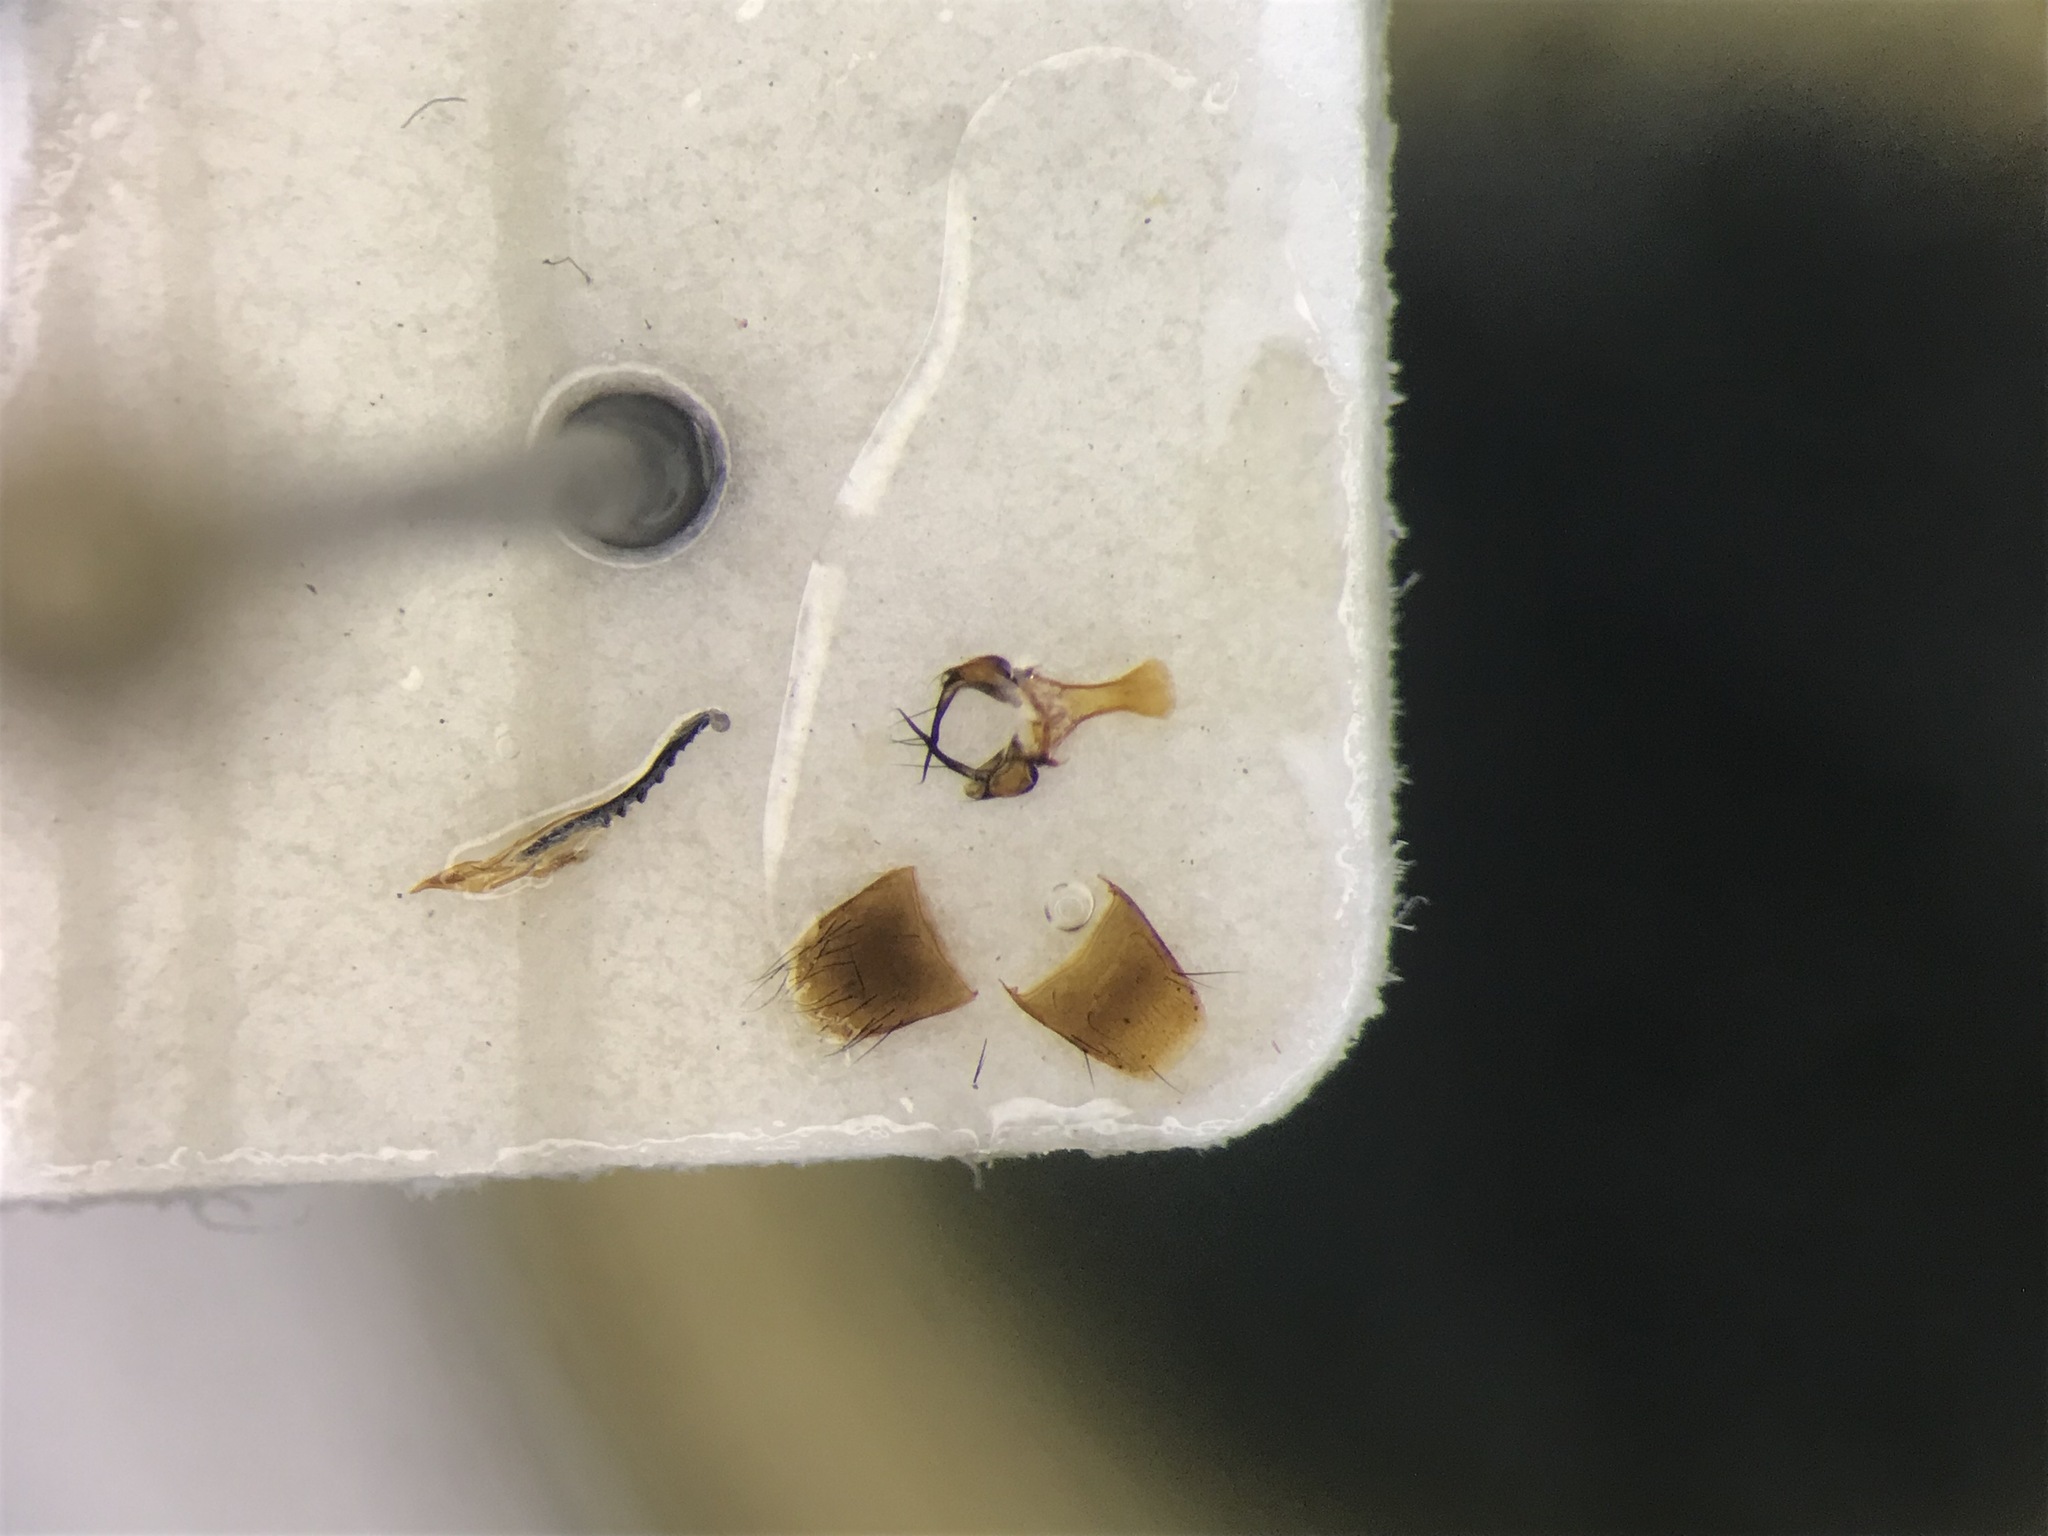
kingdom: Animalia
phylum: Arthropoda
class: Insecta
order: Coleoptera
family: Staphylinidae
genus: Habrocerus
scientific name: Habrocerus capillaricornis
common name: Staph beetle
